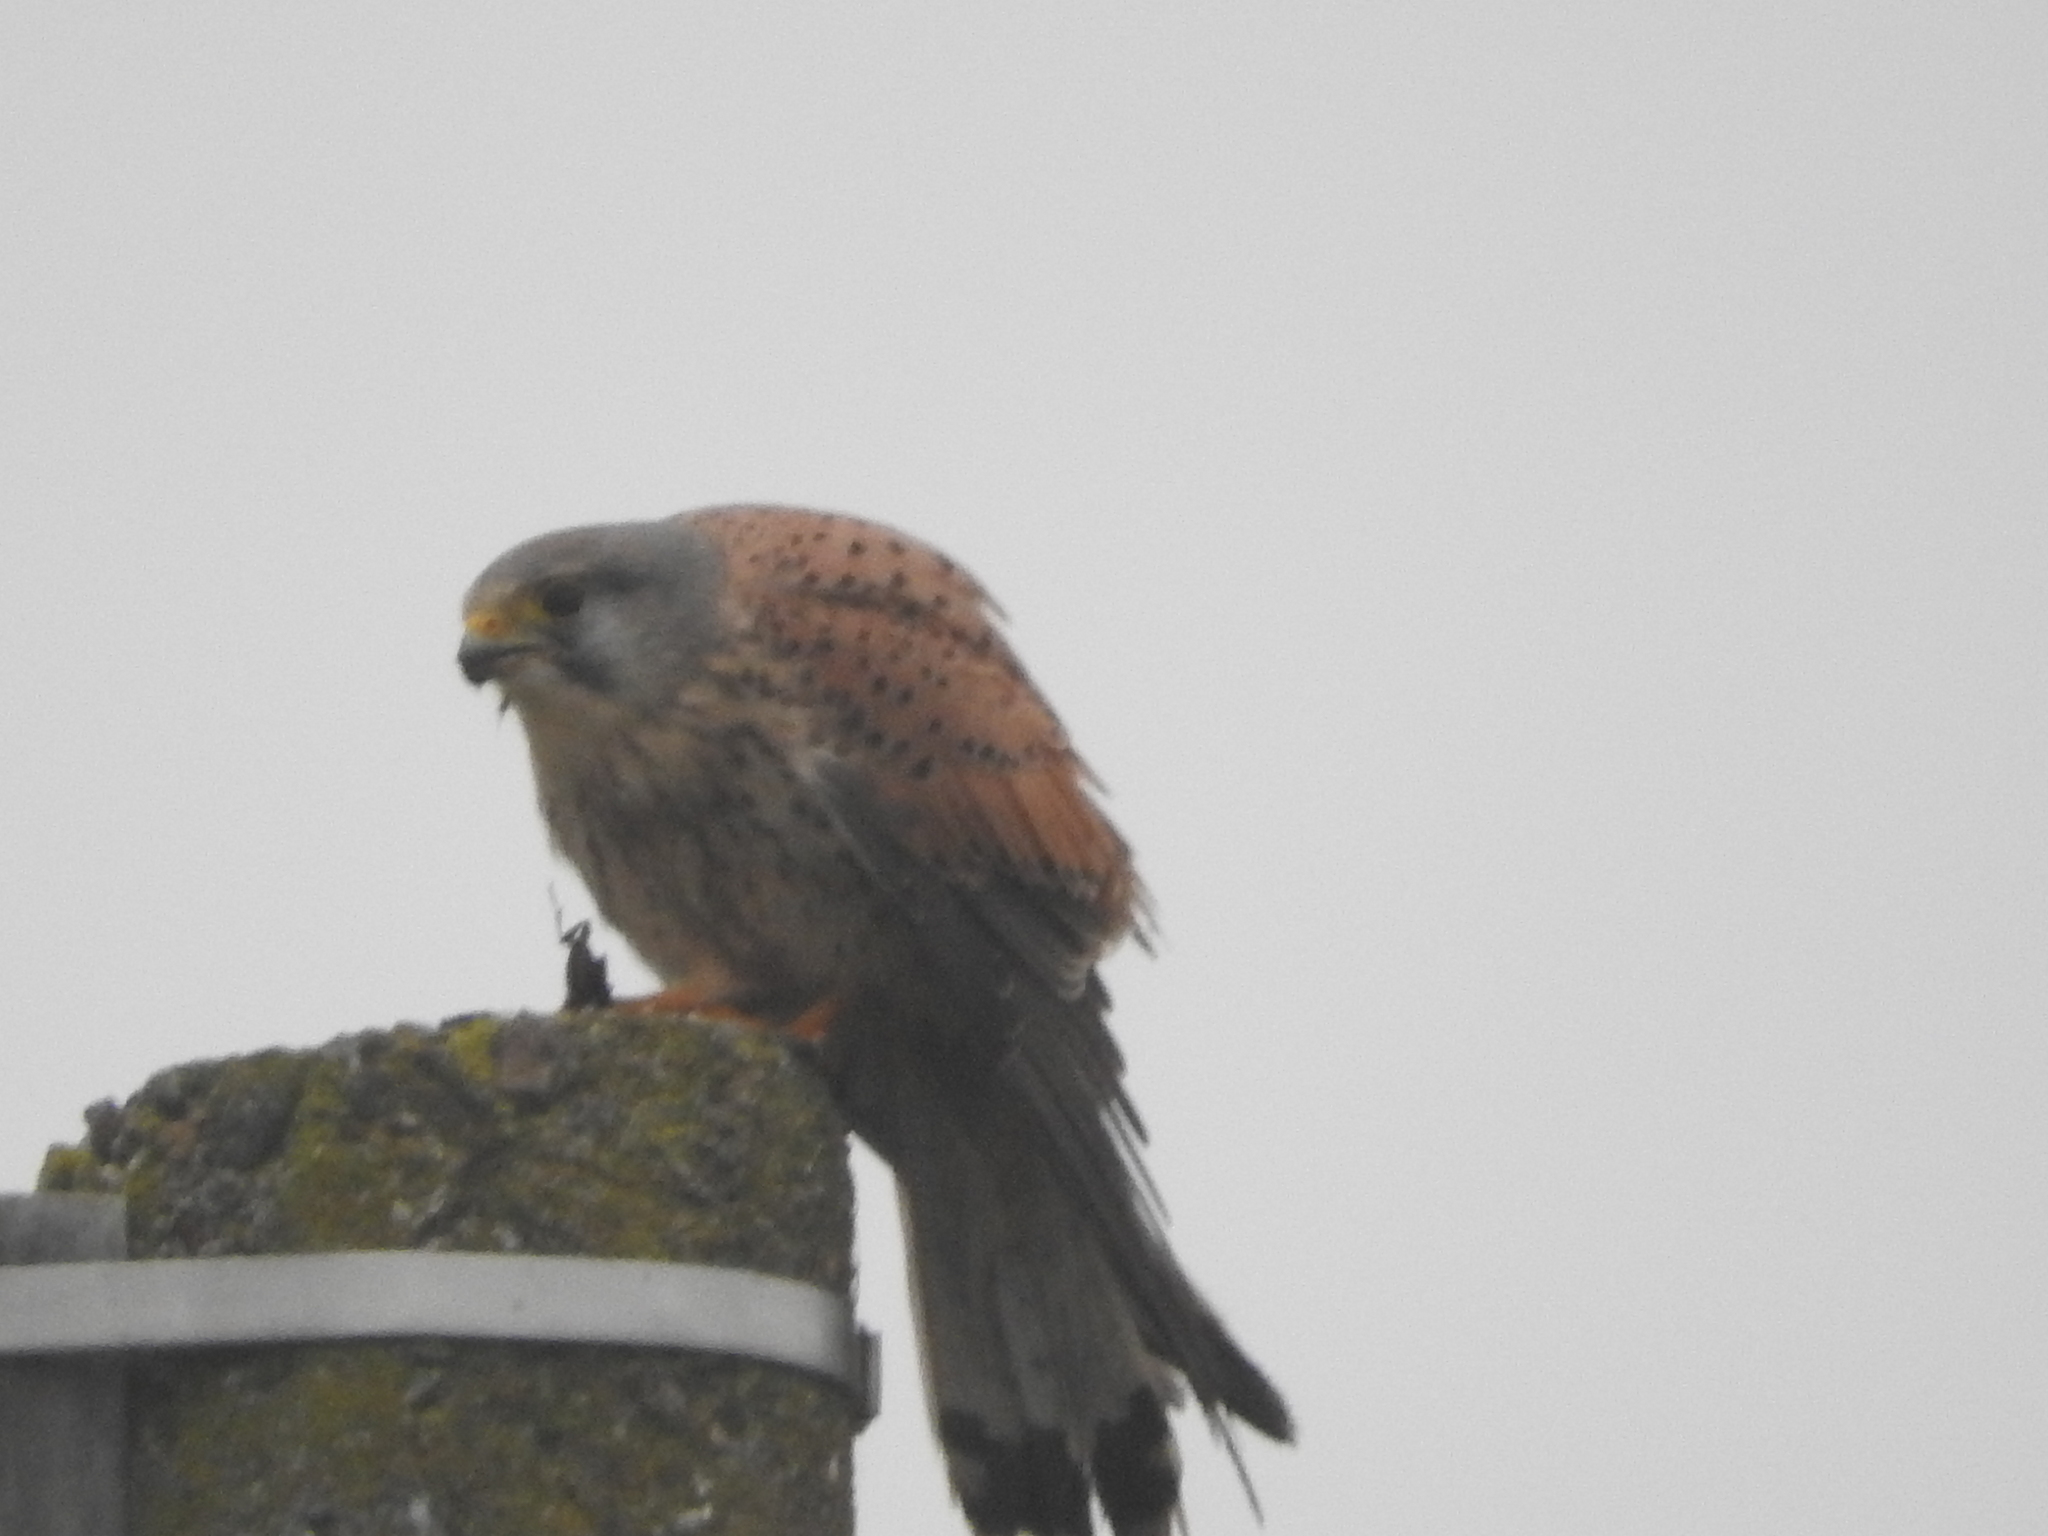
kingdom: Animalia
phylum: Chordata
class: Aves
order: Falconiformes
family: Falconidae
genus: Falco
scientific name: Falco tinnunculus
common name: Common kestrel
